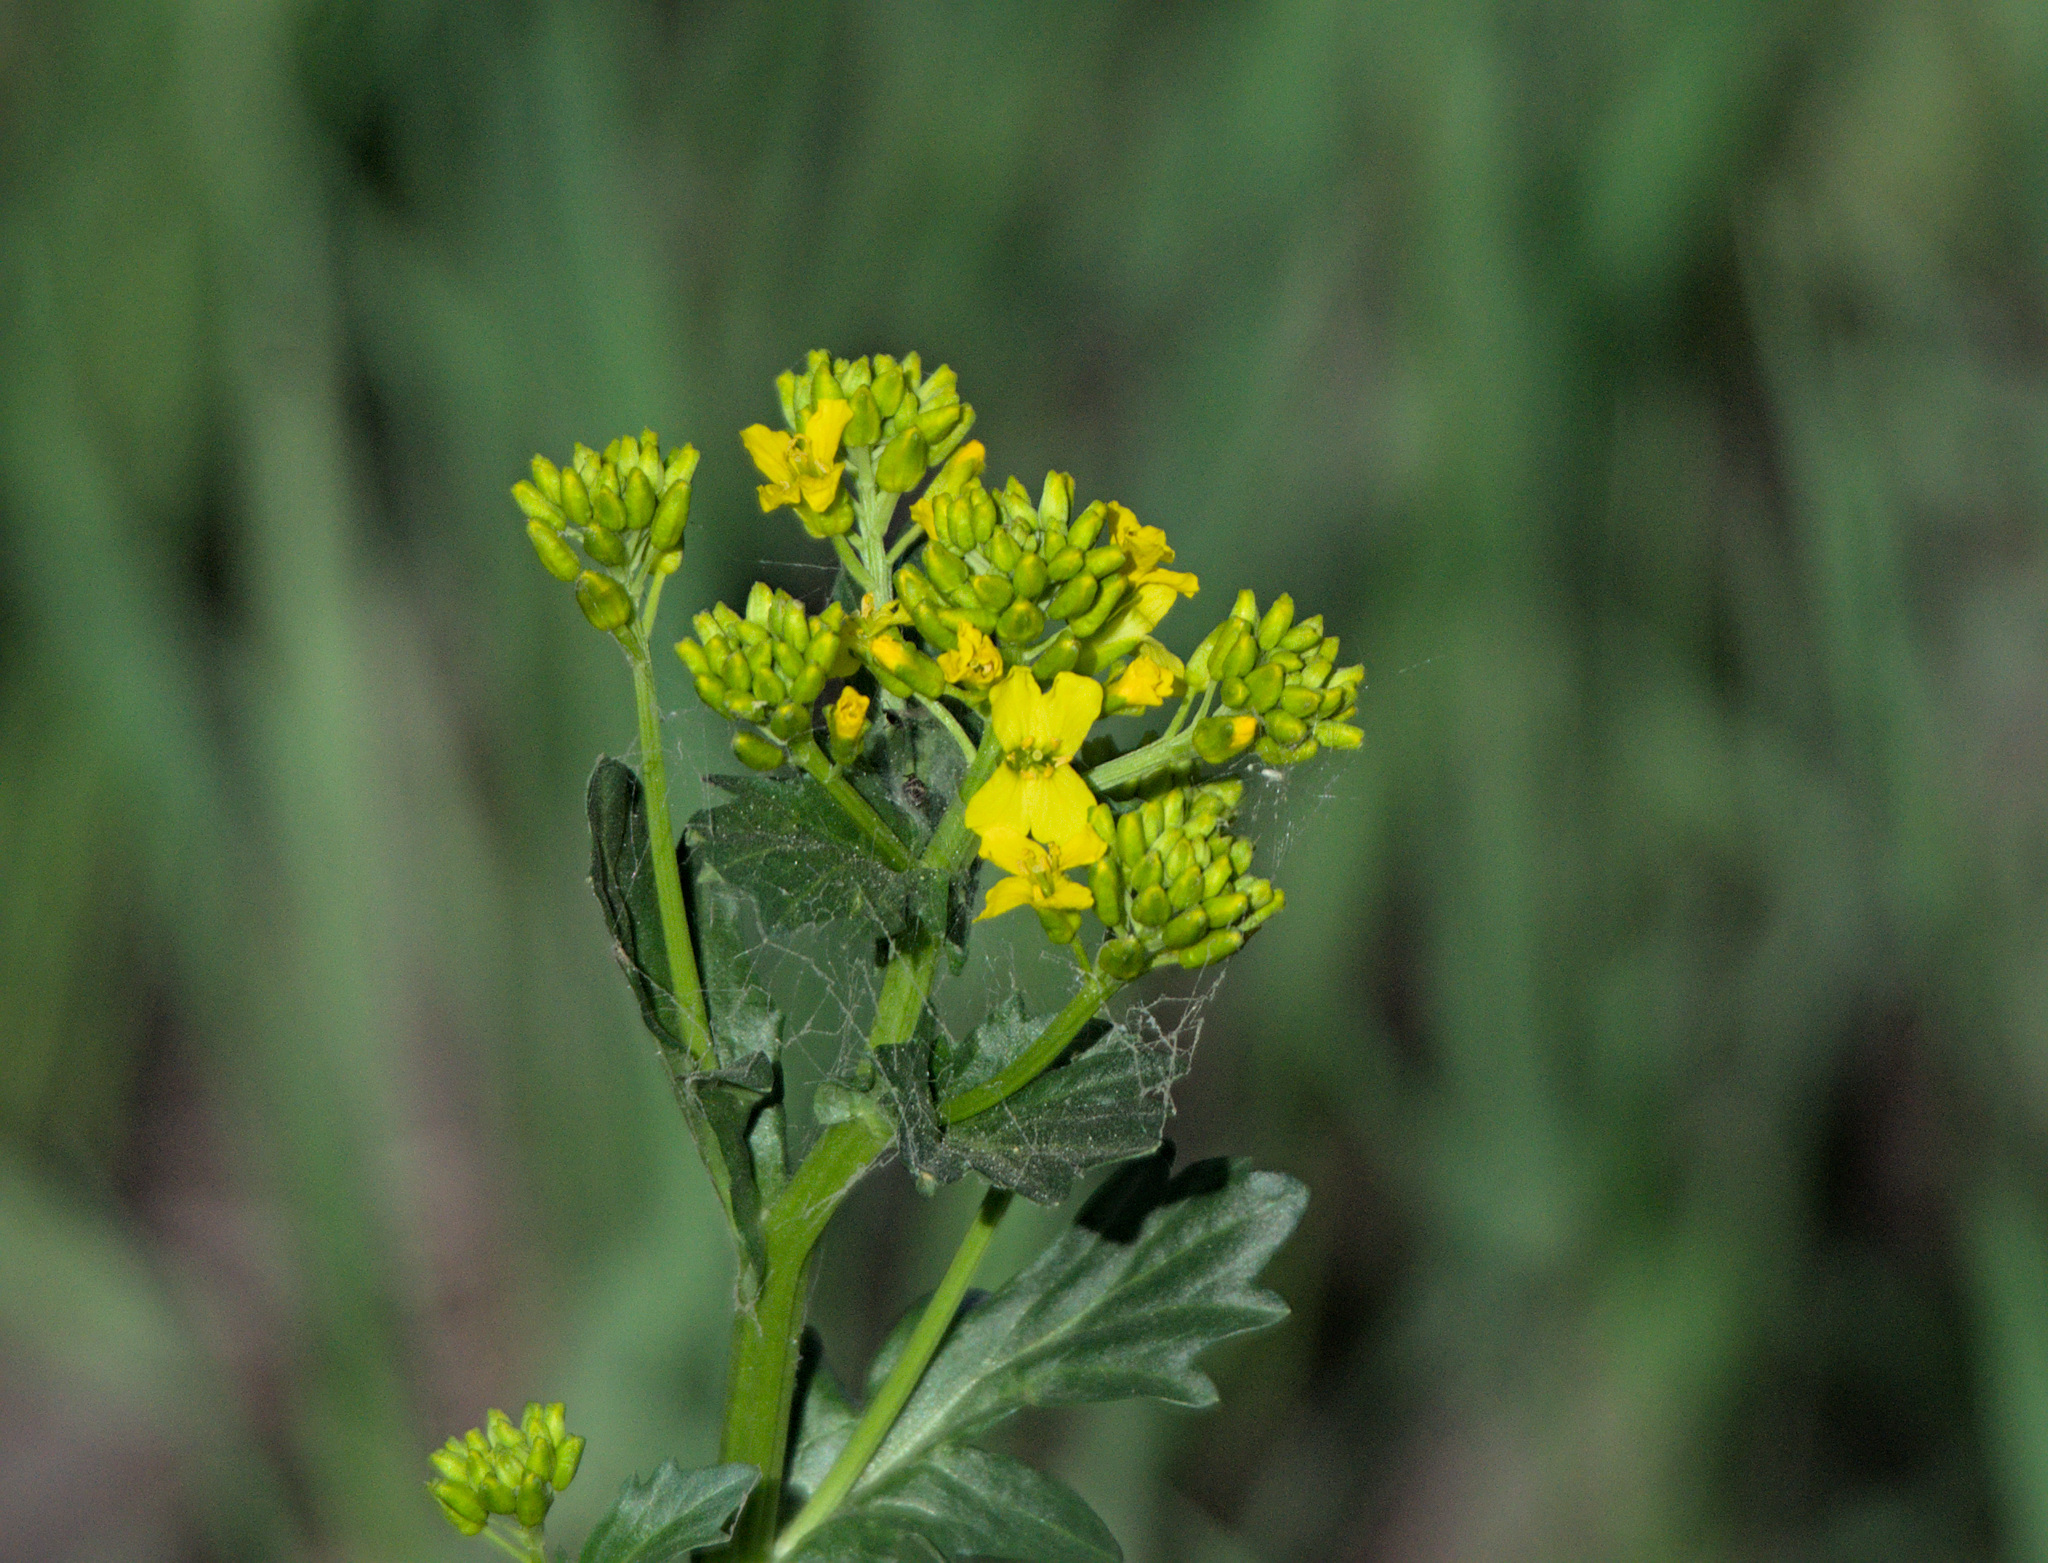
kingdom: Plantae
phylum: Tracheophyta
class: Magnoliopsida
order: Brassicales
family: Brassicaceae
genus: Barbarea
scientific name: Barbarea vulgaris
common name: Cressy-greens
